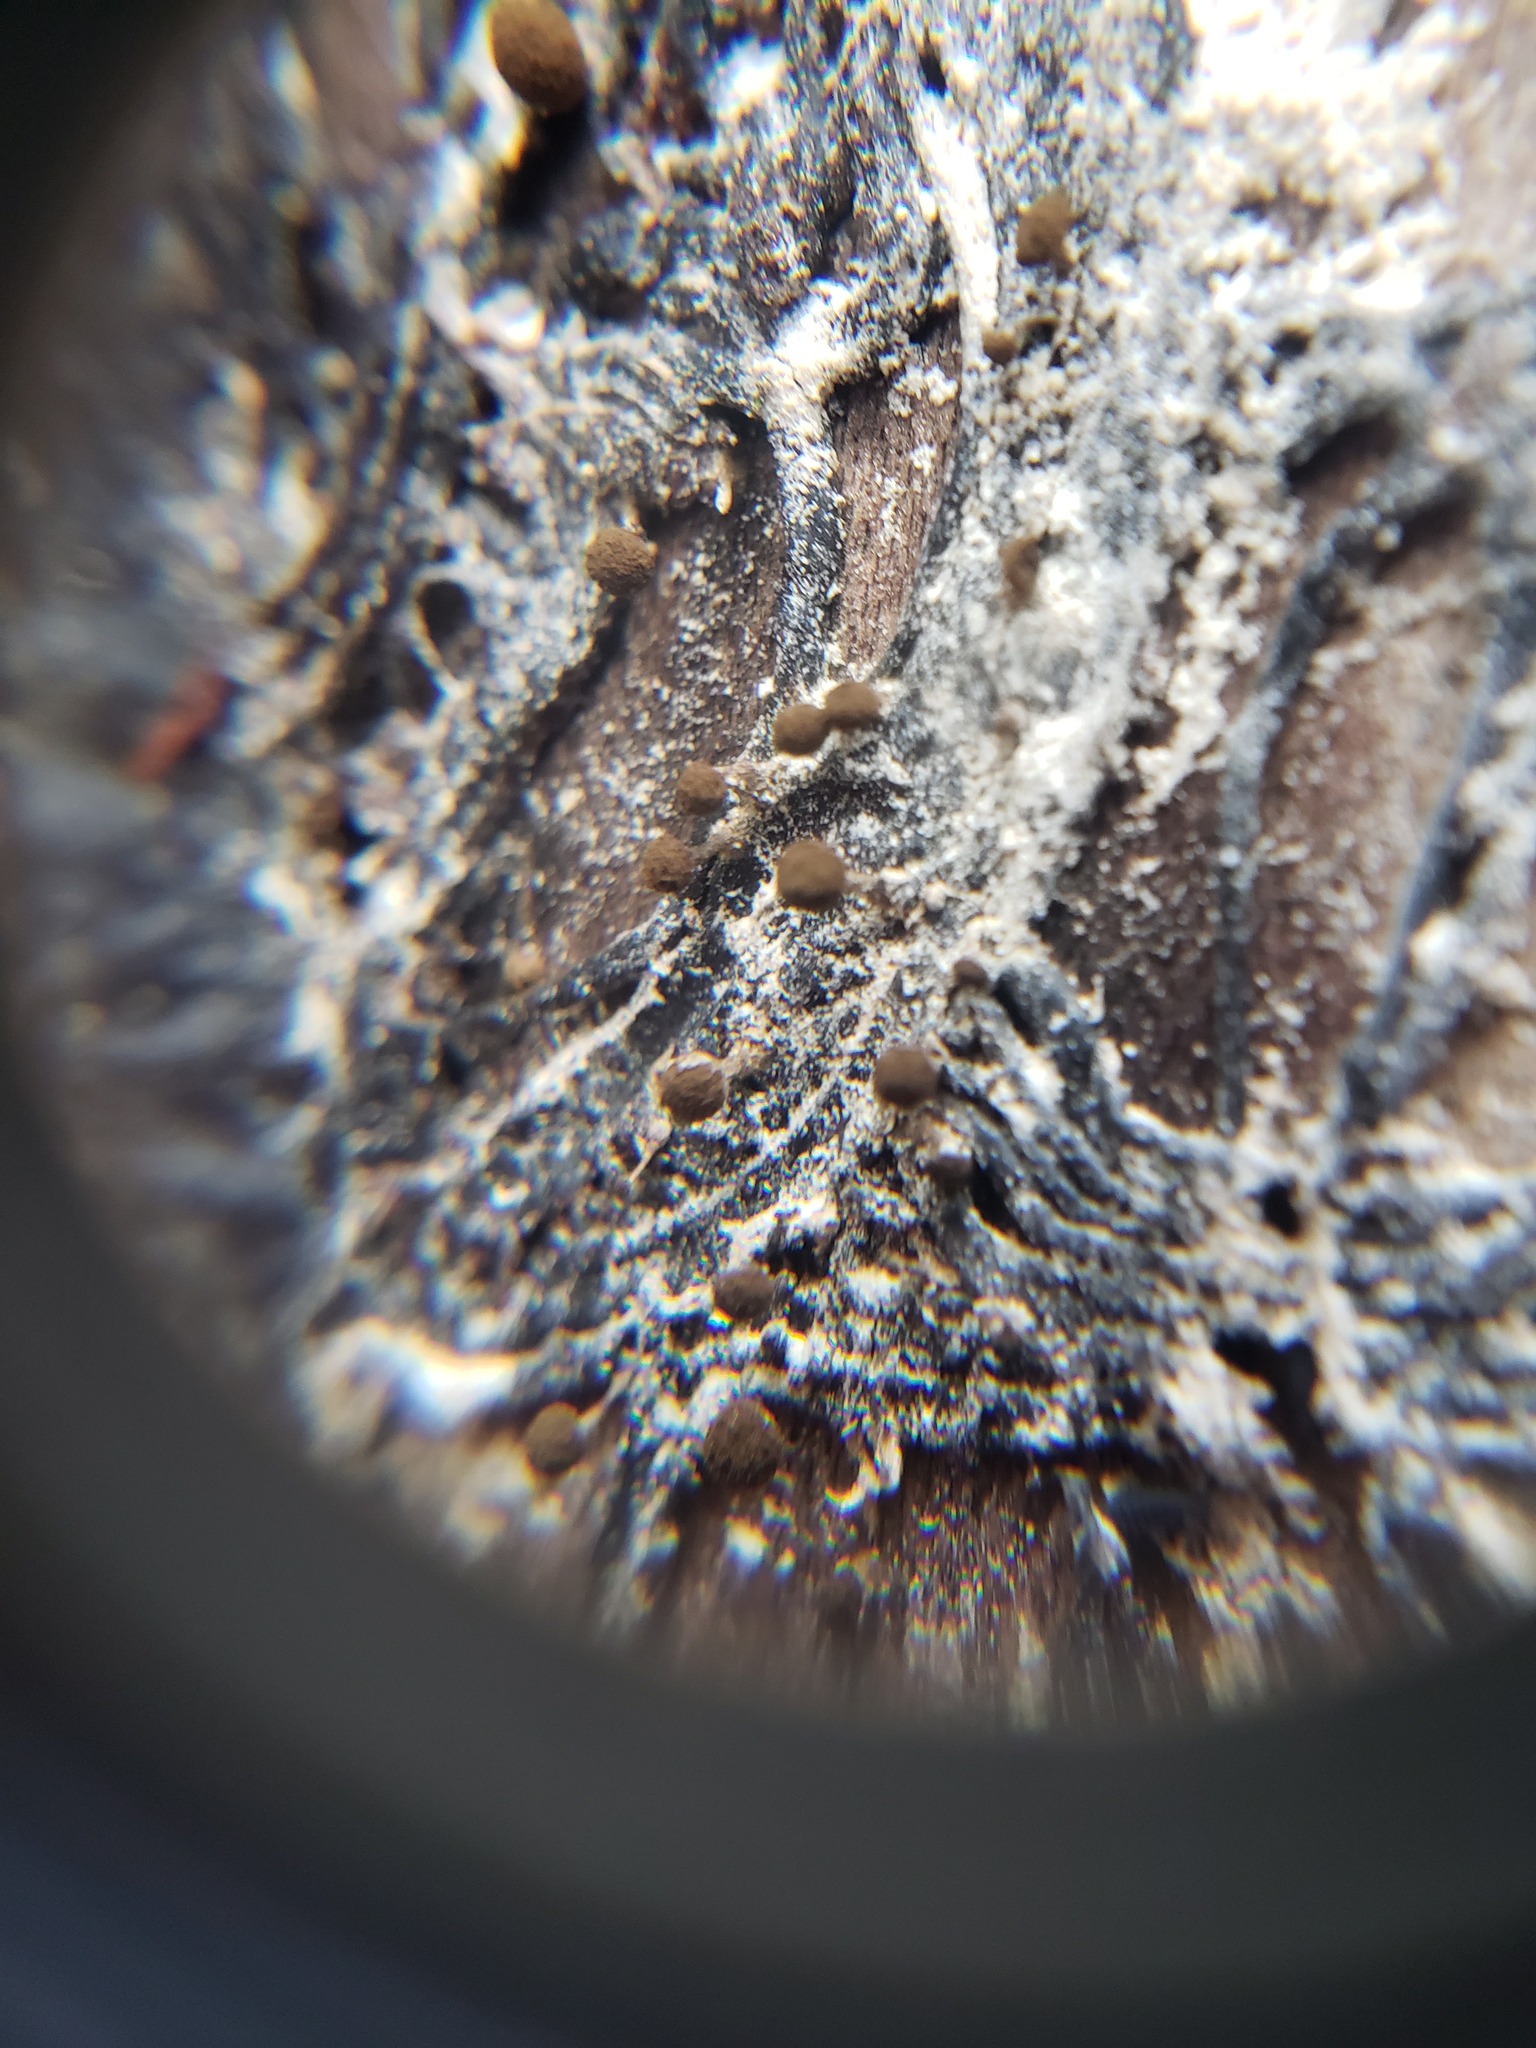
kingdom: Fungi
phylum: Basidiomycota
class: Atractiellomycetes
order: Atractiellales
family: Phleogenaceae
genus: Phleogena
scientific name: Phleogena faginea
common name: Fenugreek stalkball
